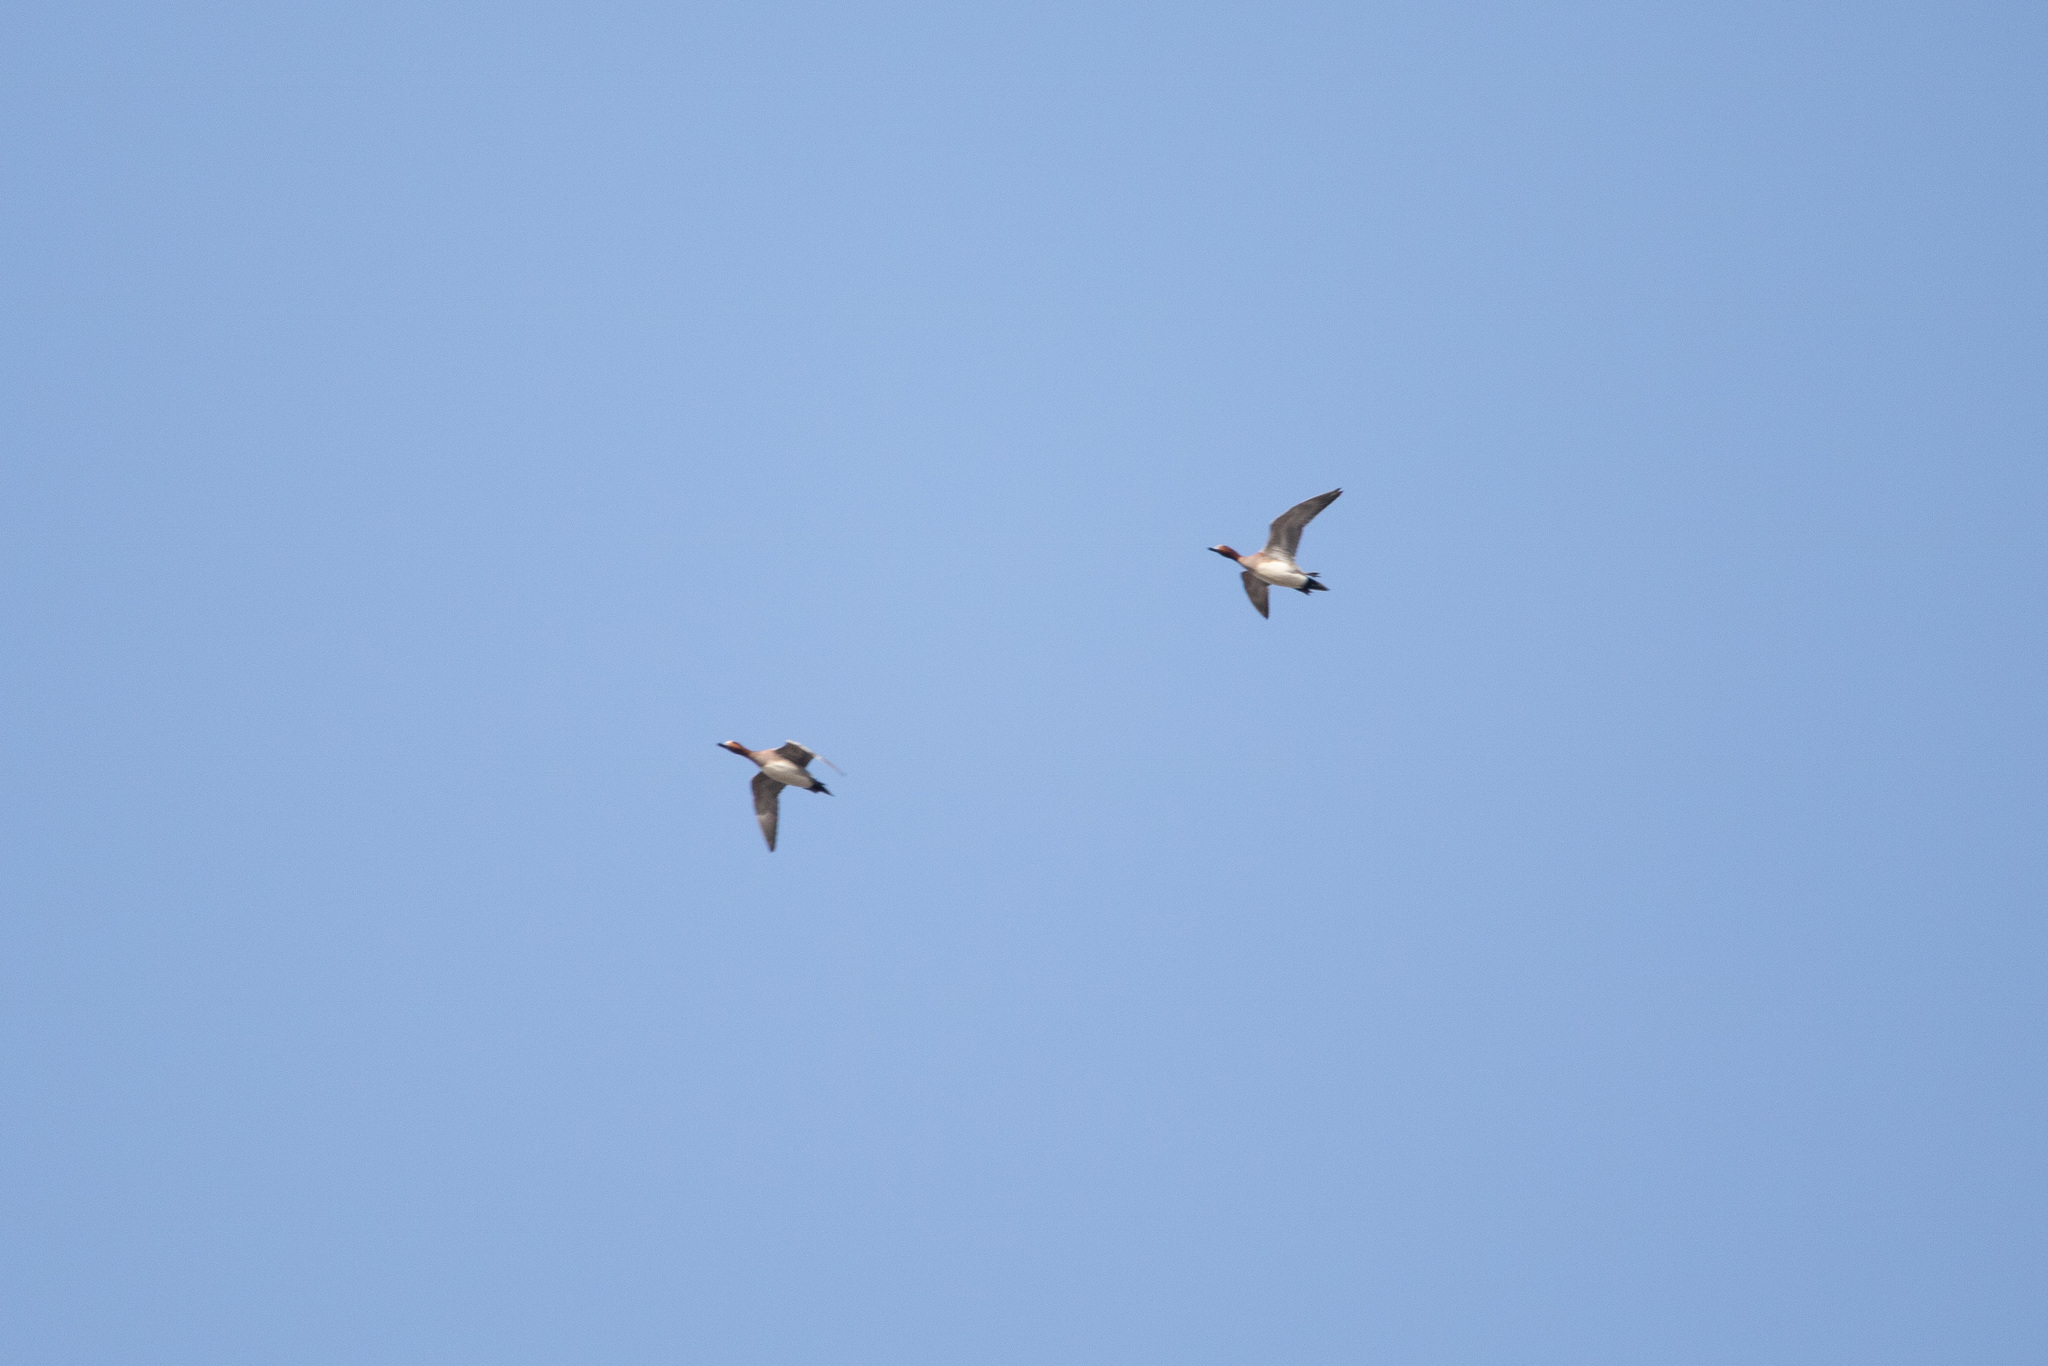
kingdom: Animalia
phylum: Chordata
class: Aves
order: Anseriformes
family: Anatidae
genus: Mareca
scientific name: Mareca penelope
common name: Eurasian wigeon
